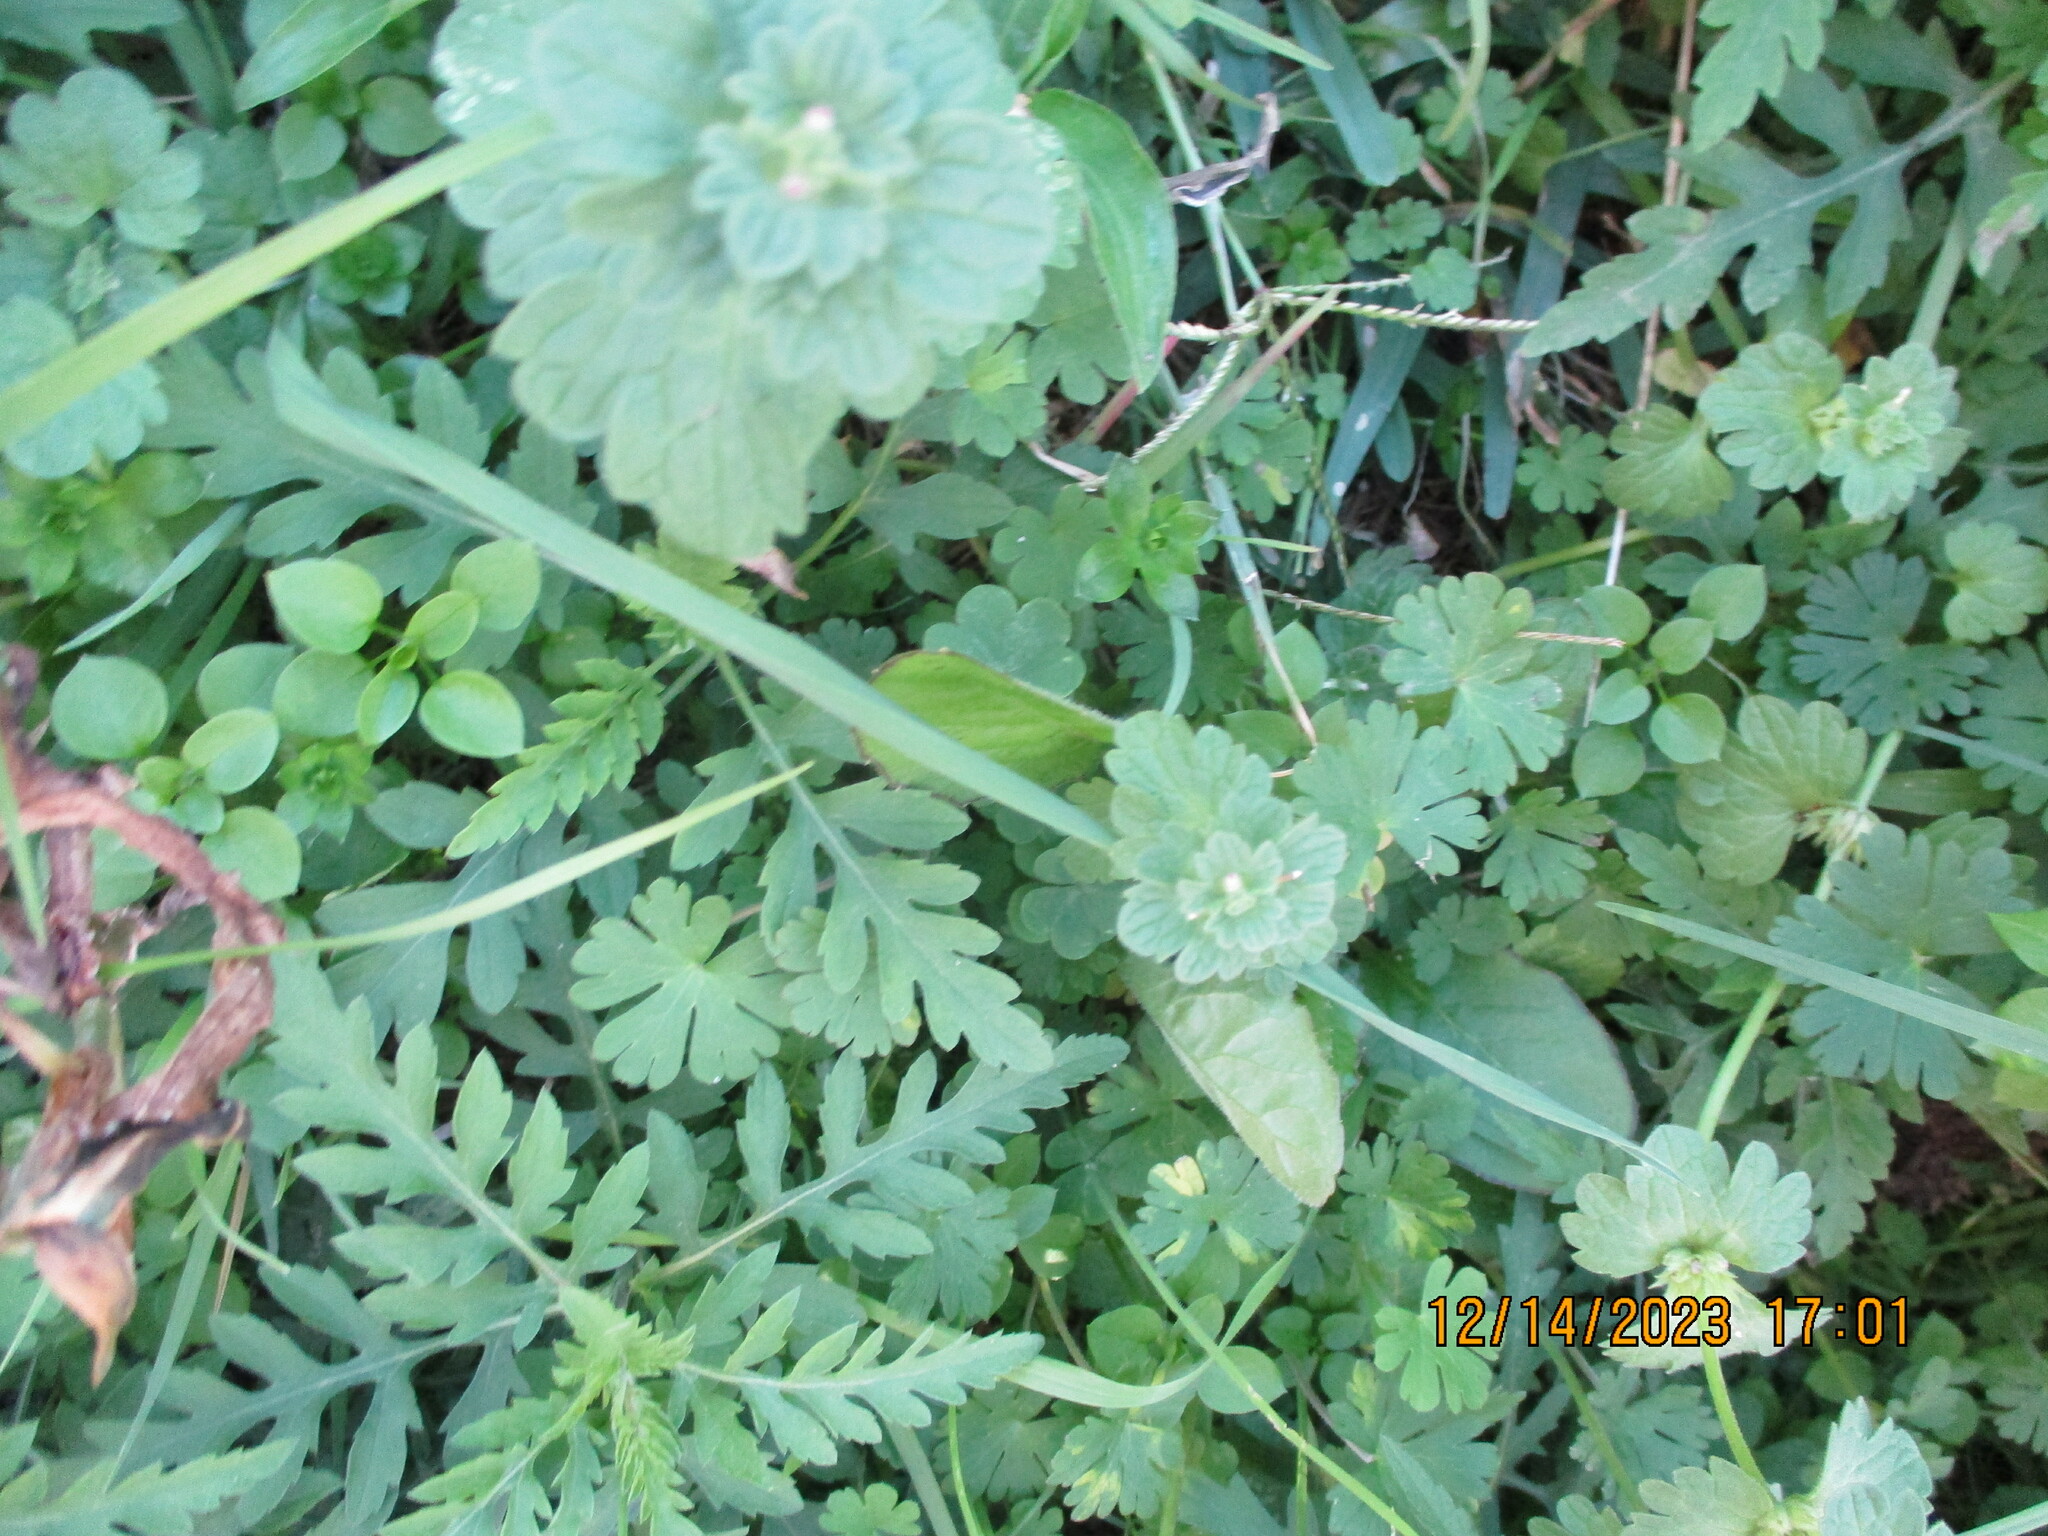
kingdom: Plantae
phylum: Tracheophyta
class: Magnoliopsida
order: Lamiales
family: Lamiaceae
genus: Lamium
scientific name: Lamium amplexicaule
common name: Henbit dead-nettle
